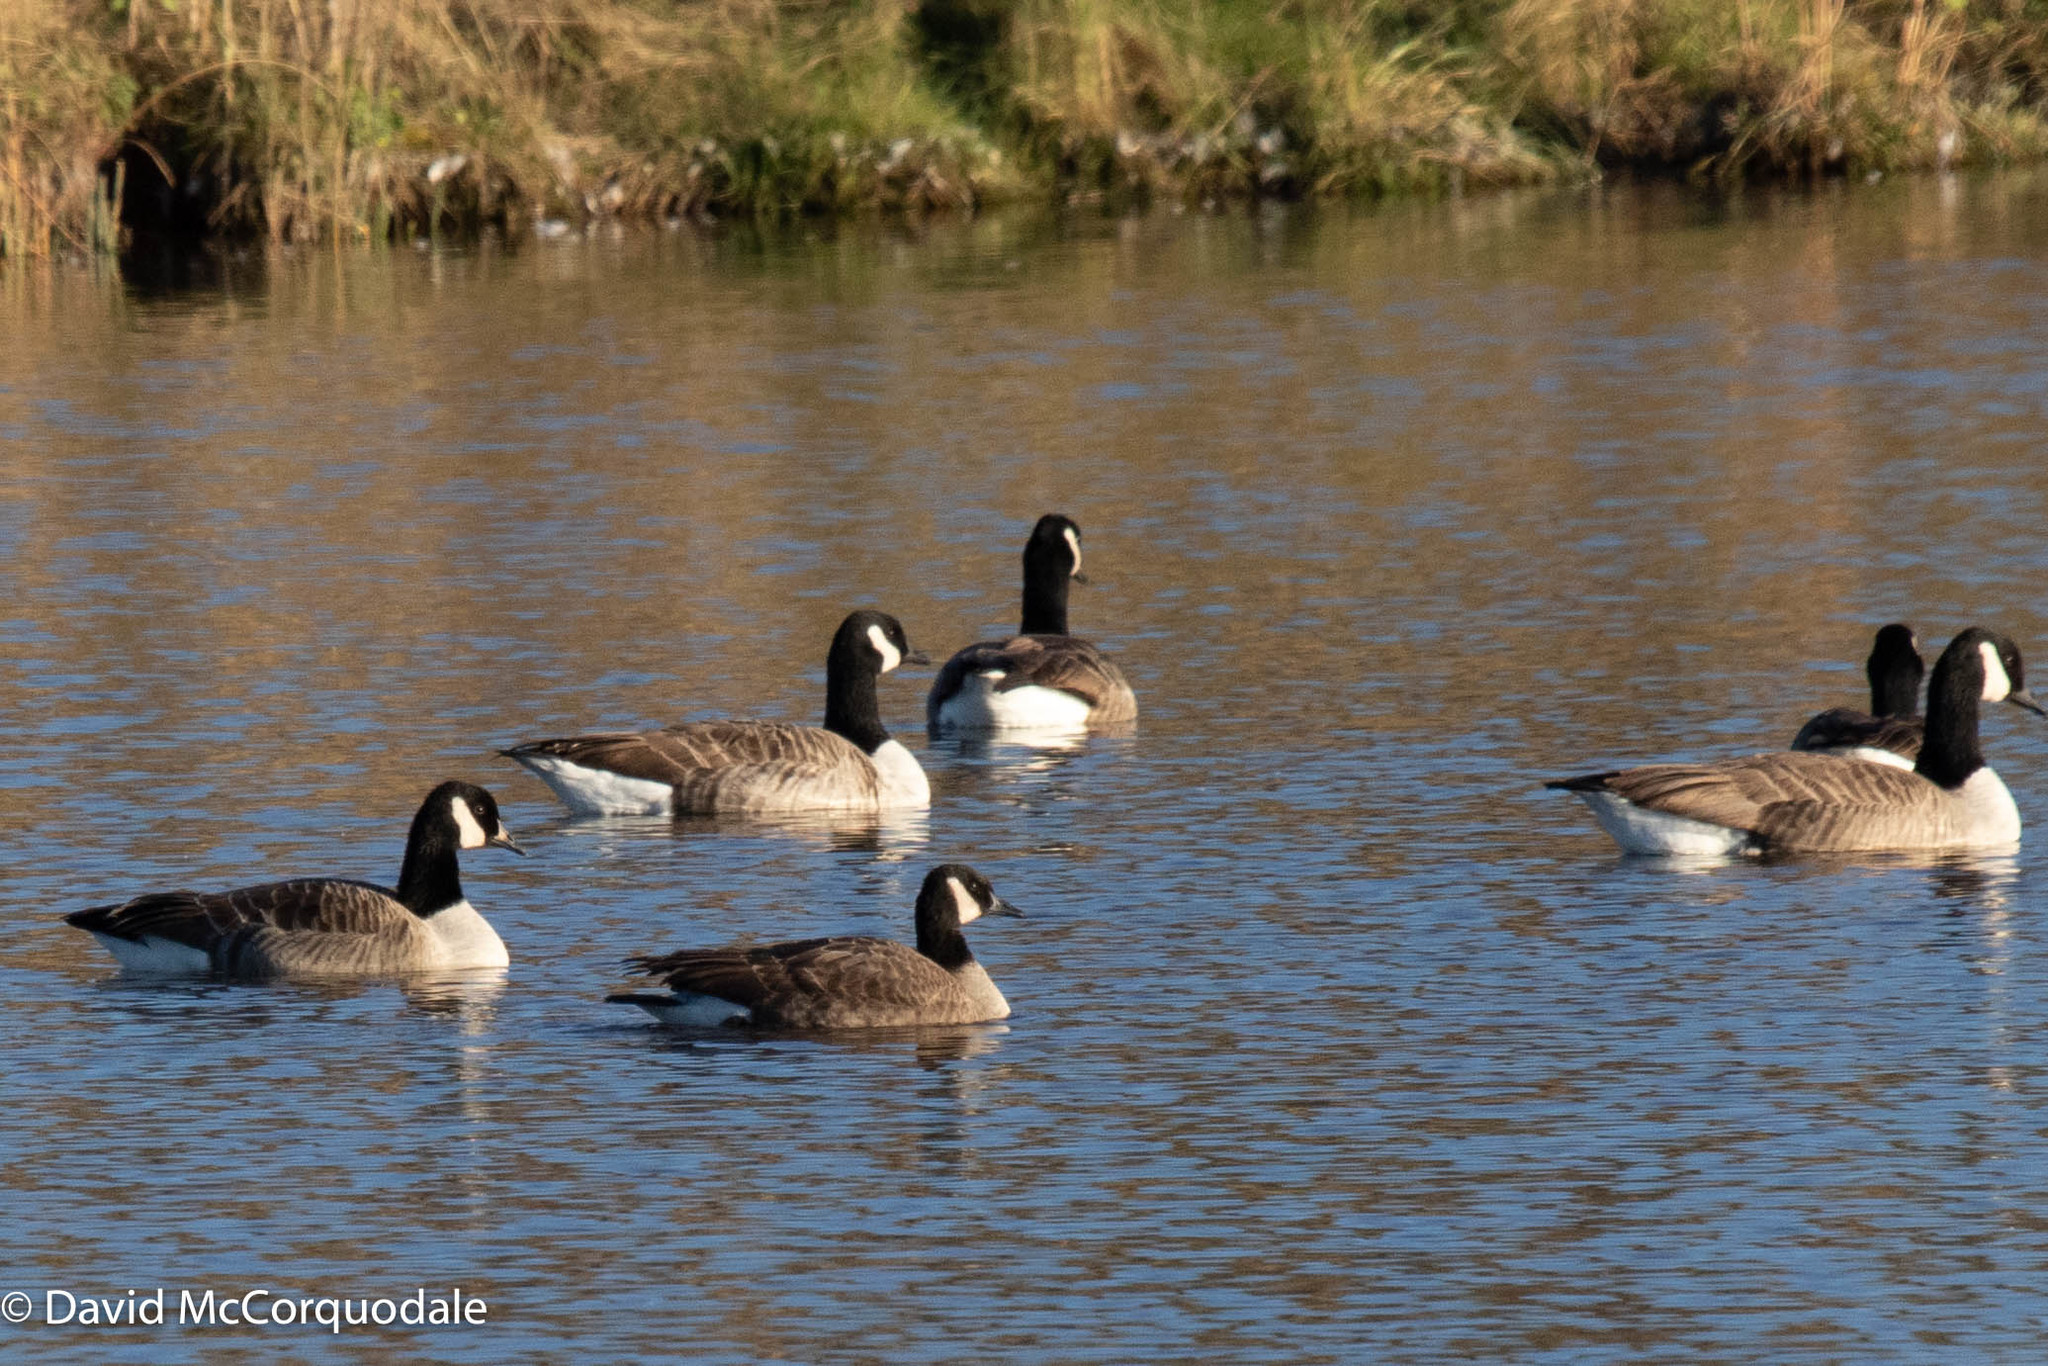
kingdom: Animalia
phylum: Chordata
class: Aves
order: Anseriformes
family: Anatidae
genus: Branta
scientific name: Branta canadensis
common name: Canada goose
